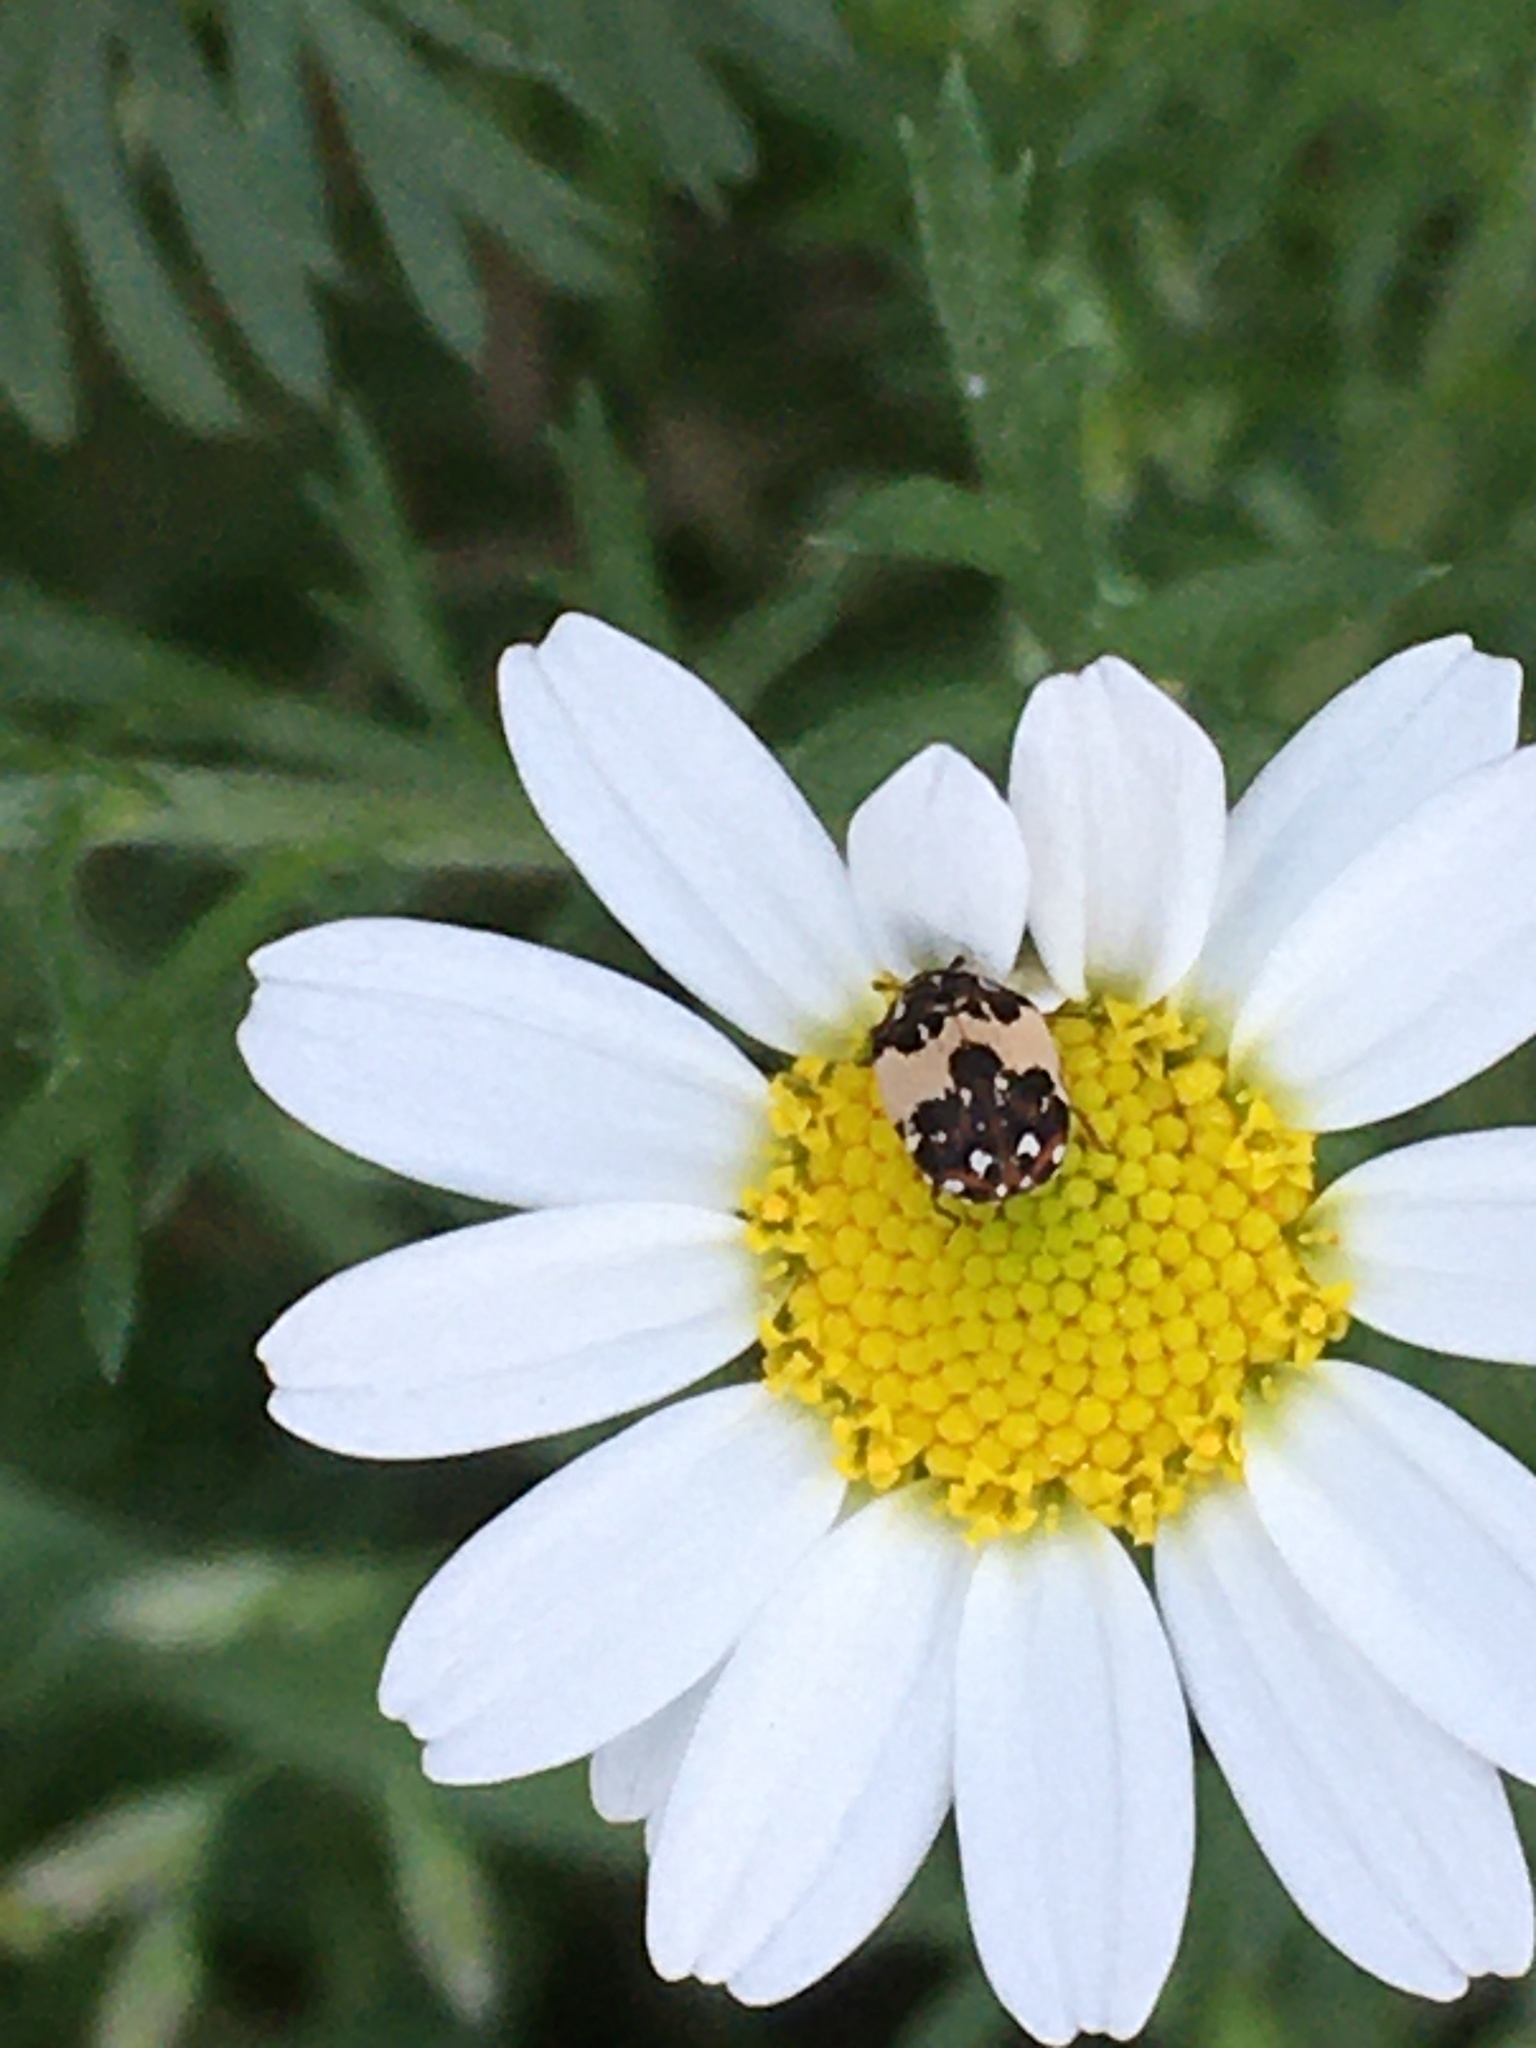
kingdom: Animalia
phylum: Arthropoda
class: Insecta
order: Coleoptera
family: Dermestidae
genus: Anthrenus
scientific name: Anthrenus isabellinus
